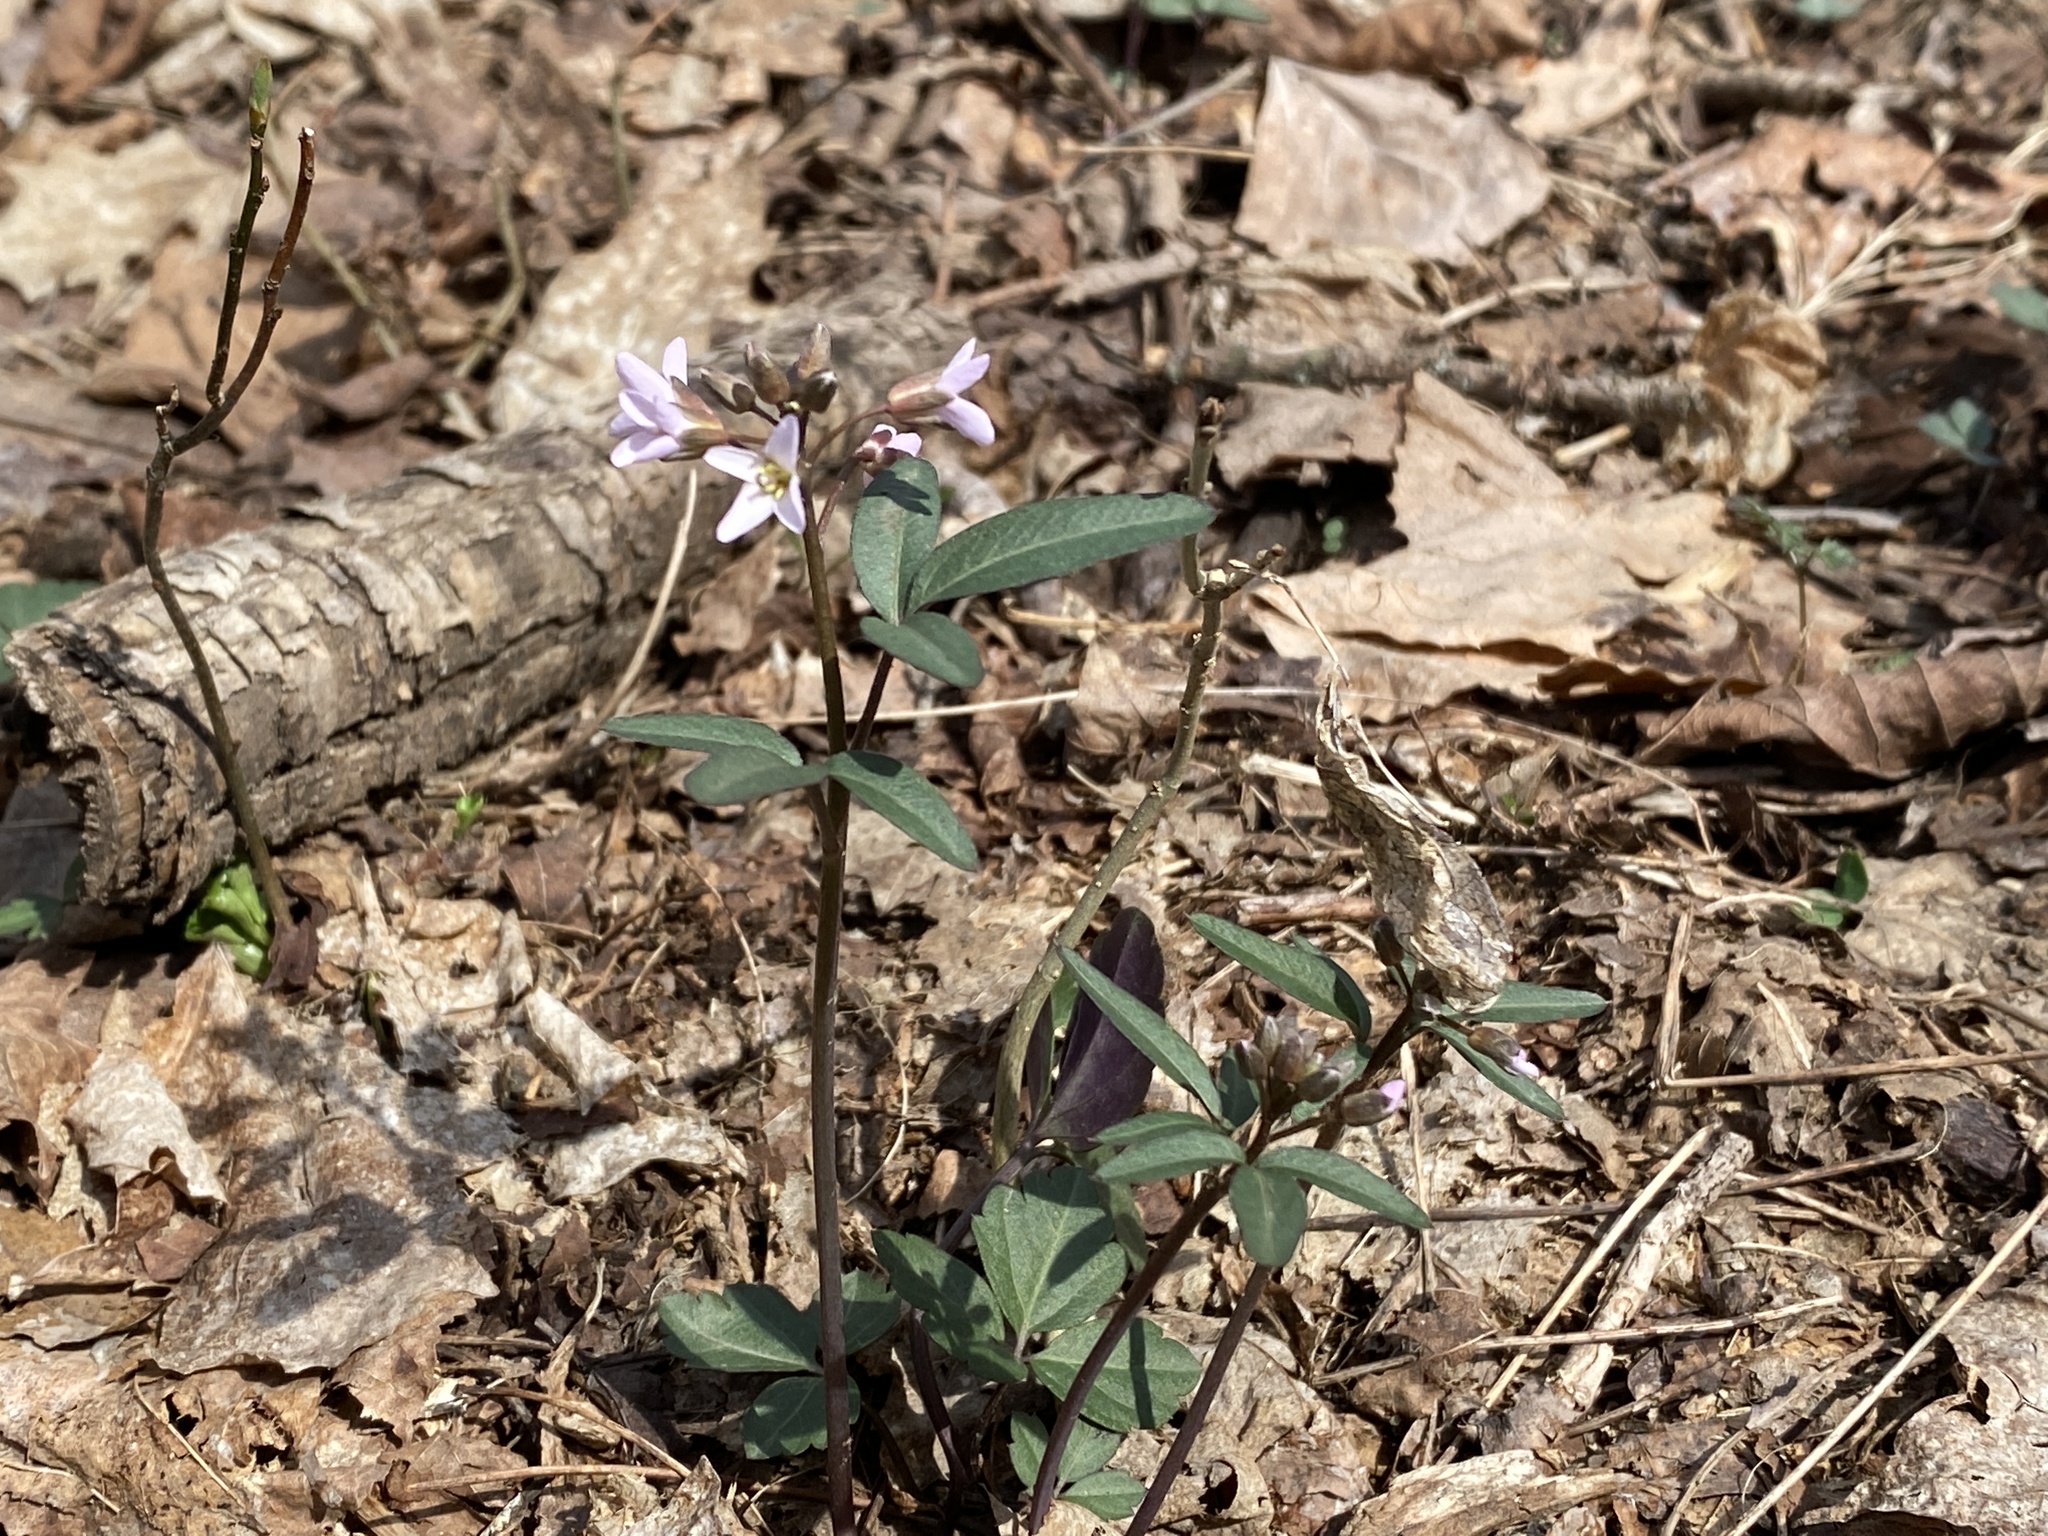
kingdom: Plantae
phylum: Tracheophyta
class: Magnoliopsida
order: Brassicales
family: Brassicaceae
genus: Cardamine
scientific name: Cardamine angustata
